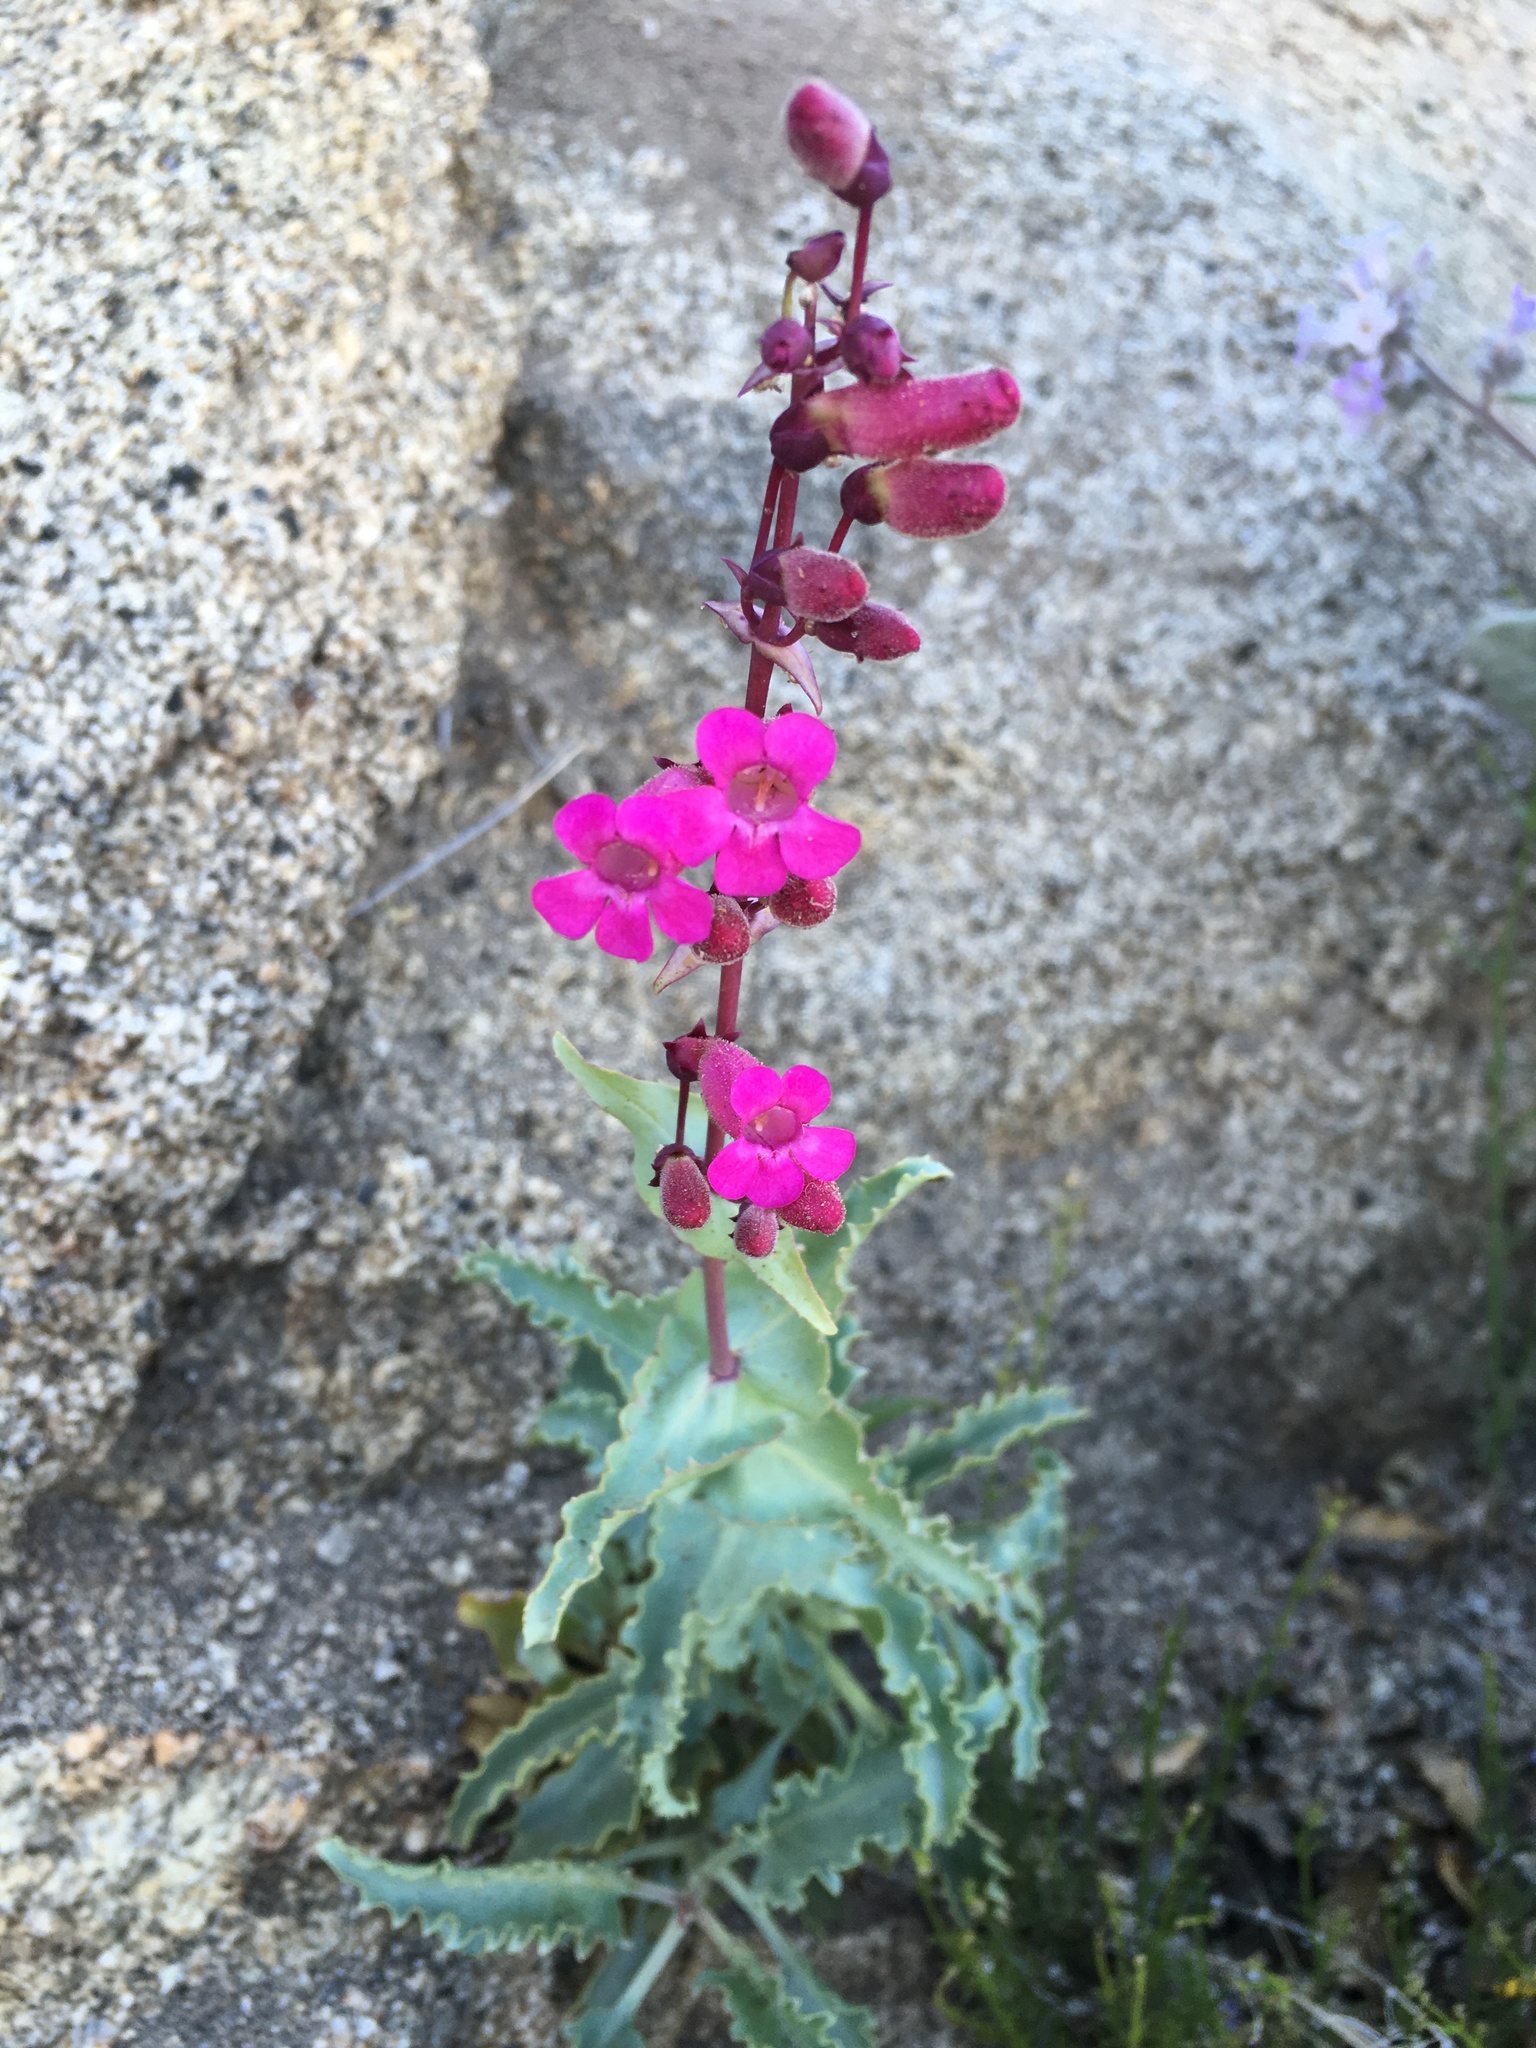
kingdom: Plantae
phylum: Tracheophyta
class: Magnoliopsida
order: Lamiales
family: Plantaginaceae
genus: Penstemon
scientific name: Penstemon clevelandii
